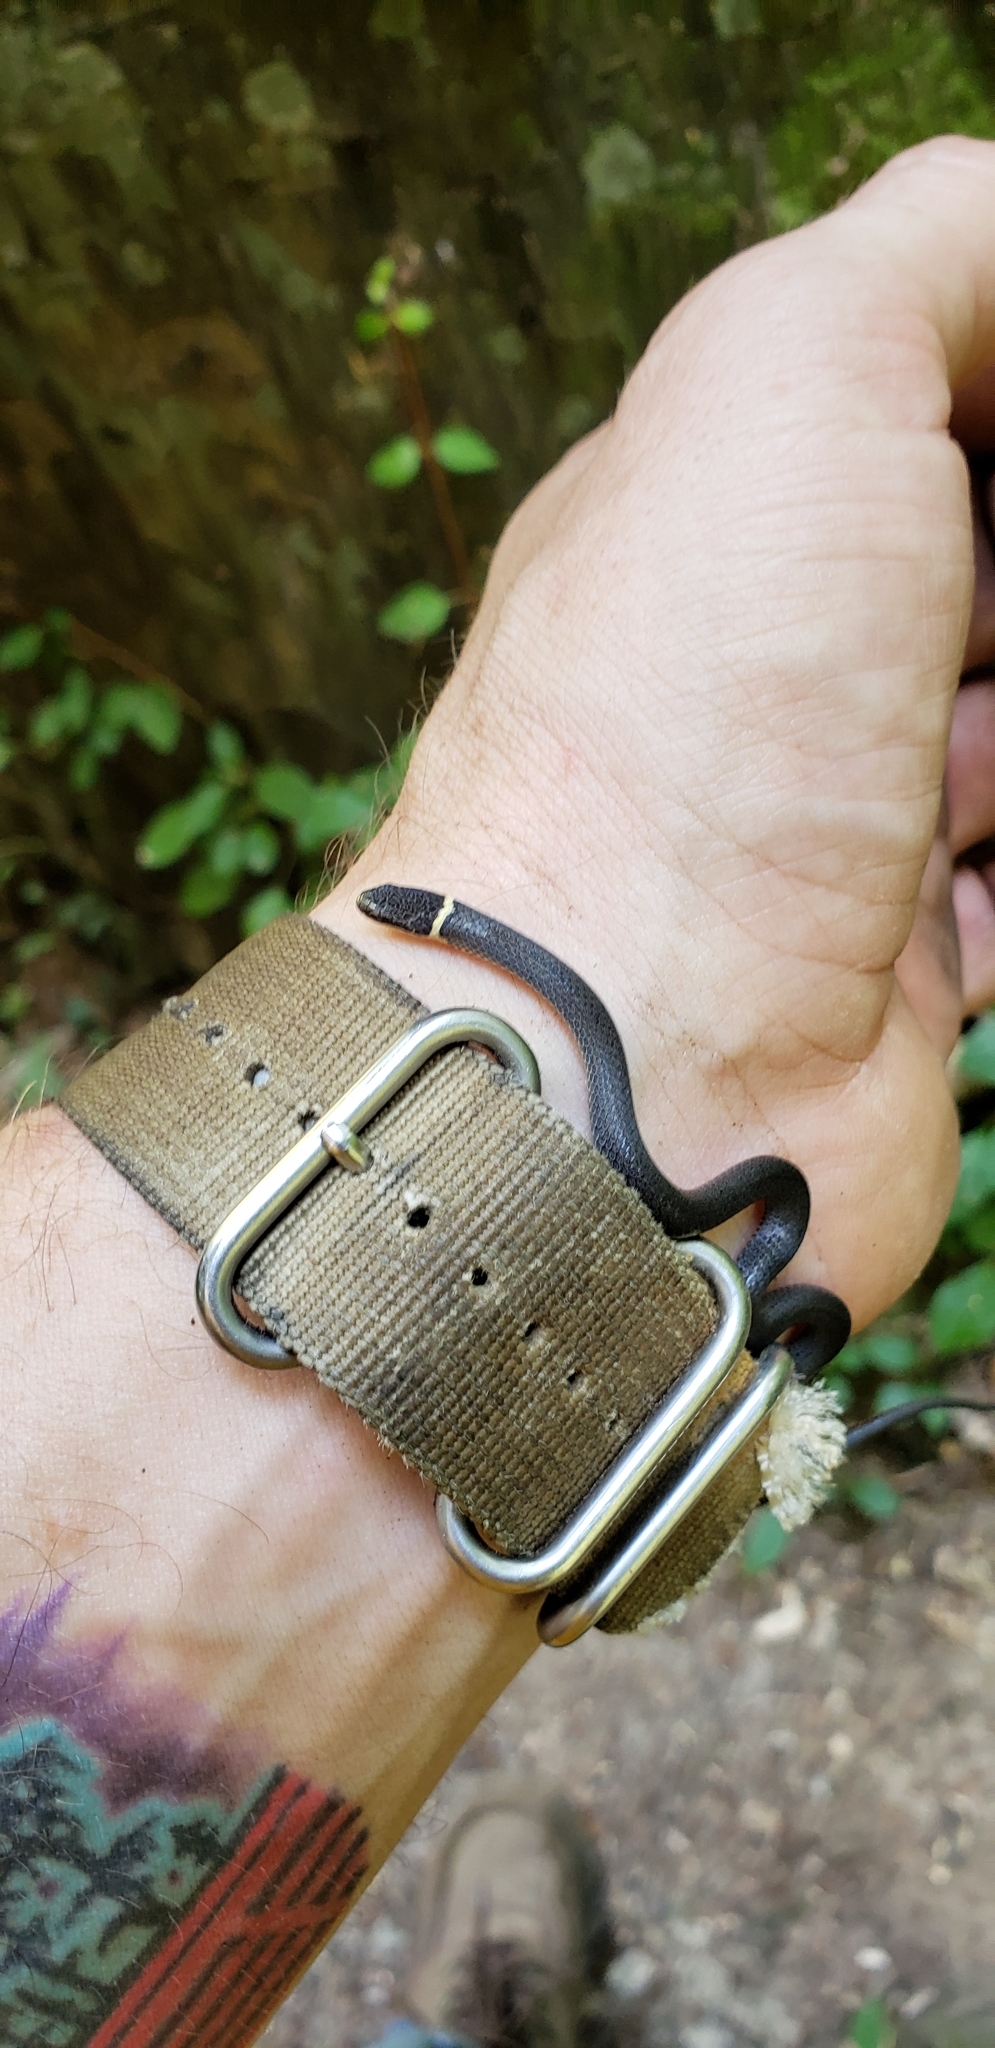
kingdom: Animalia
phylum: Chordata
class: Squamata
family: Colubridae
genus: Diadophis
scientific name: Diadophis punctatus
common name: Ringneck snake
